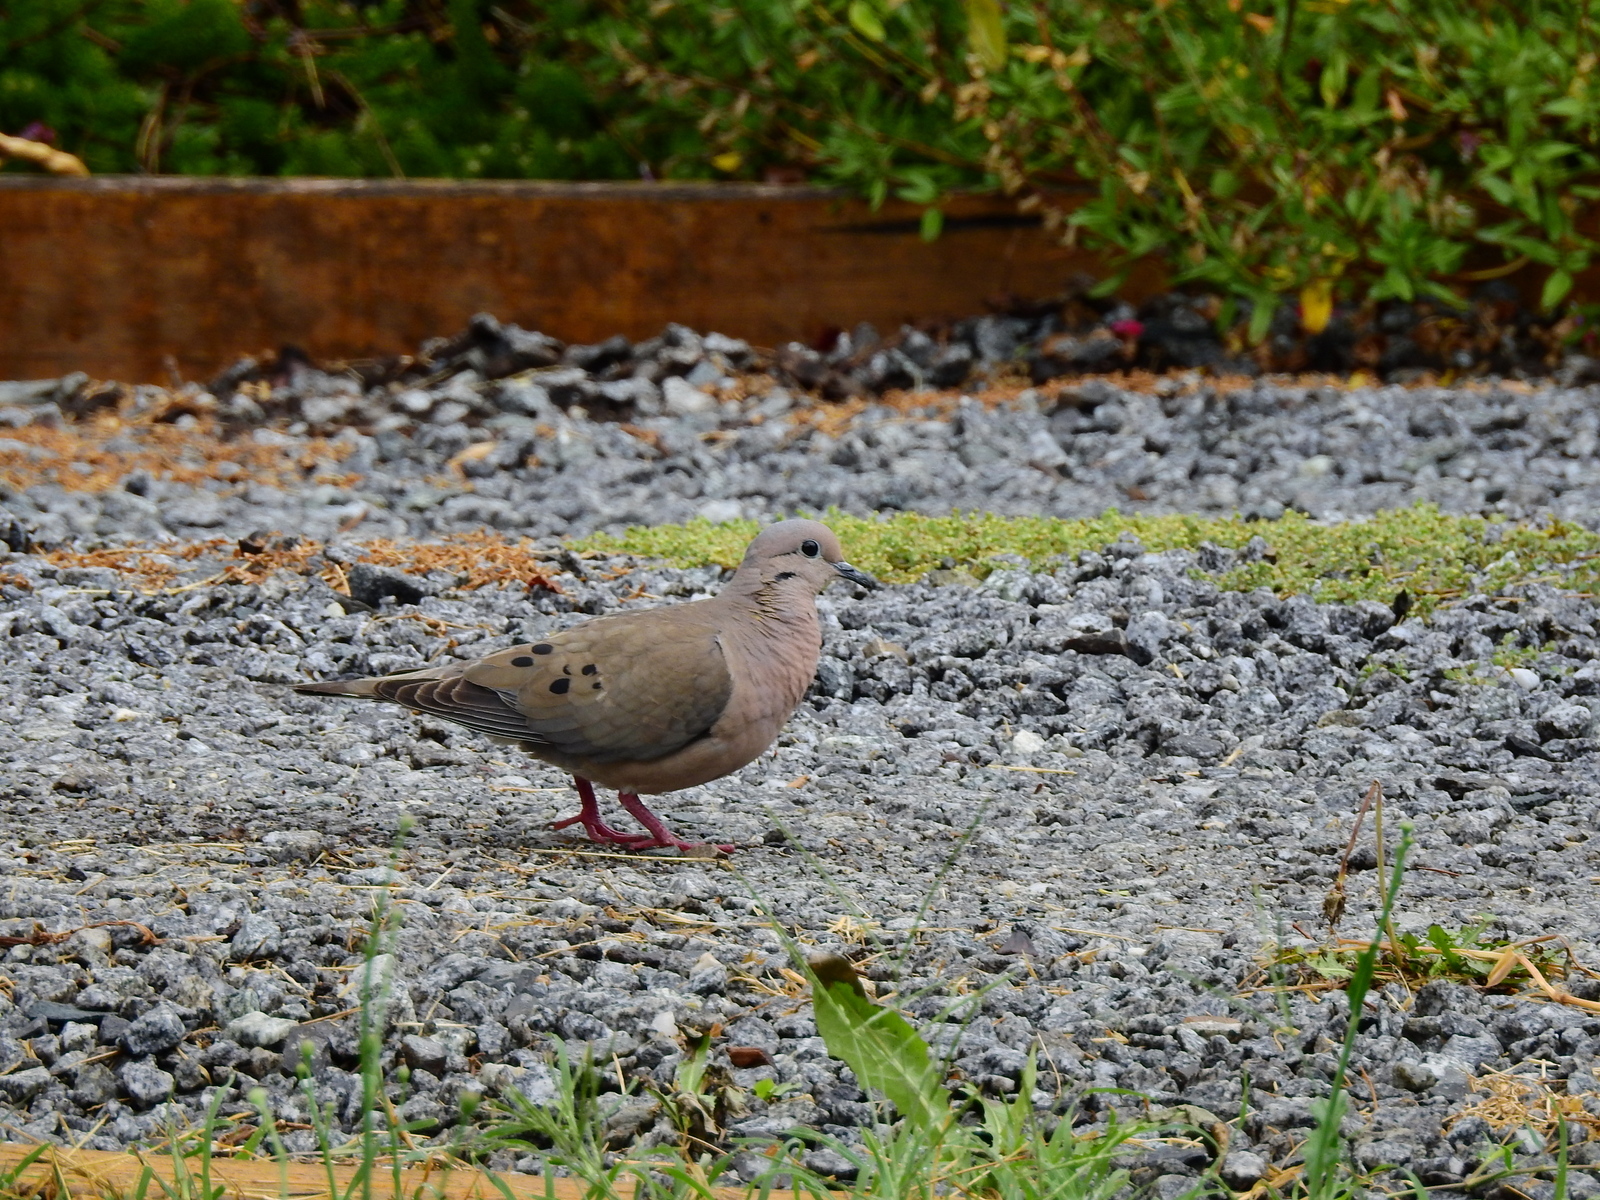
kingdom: Animalia
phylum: Chordata
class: Aves
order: Columbiformes
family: Columbidae
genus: Zenaida
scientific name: Zenaida auriculata
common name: Eared dove
